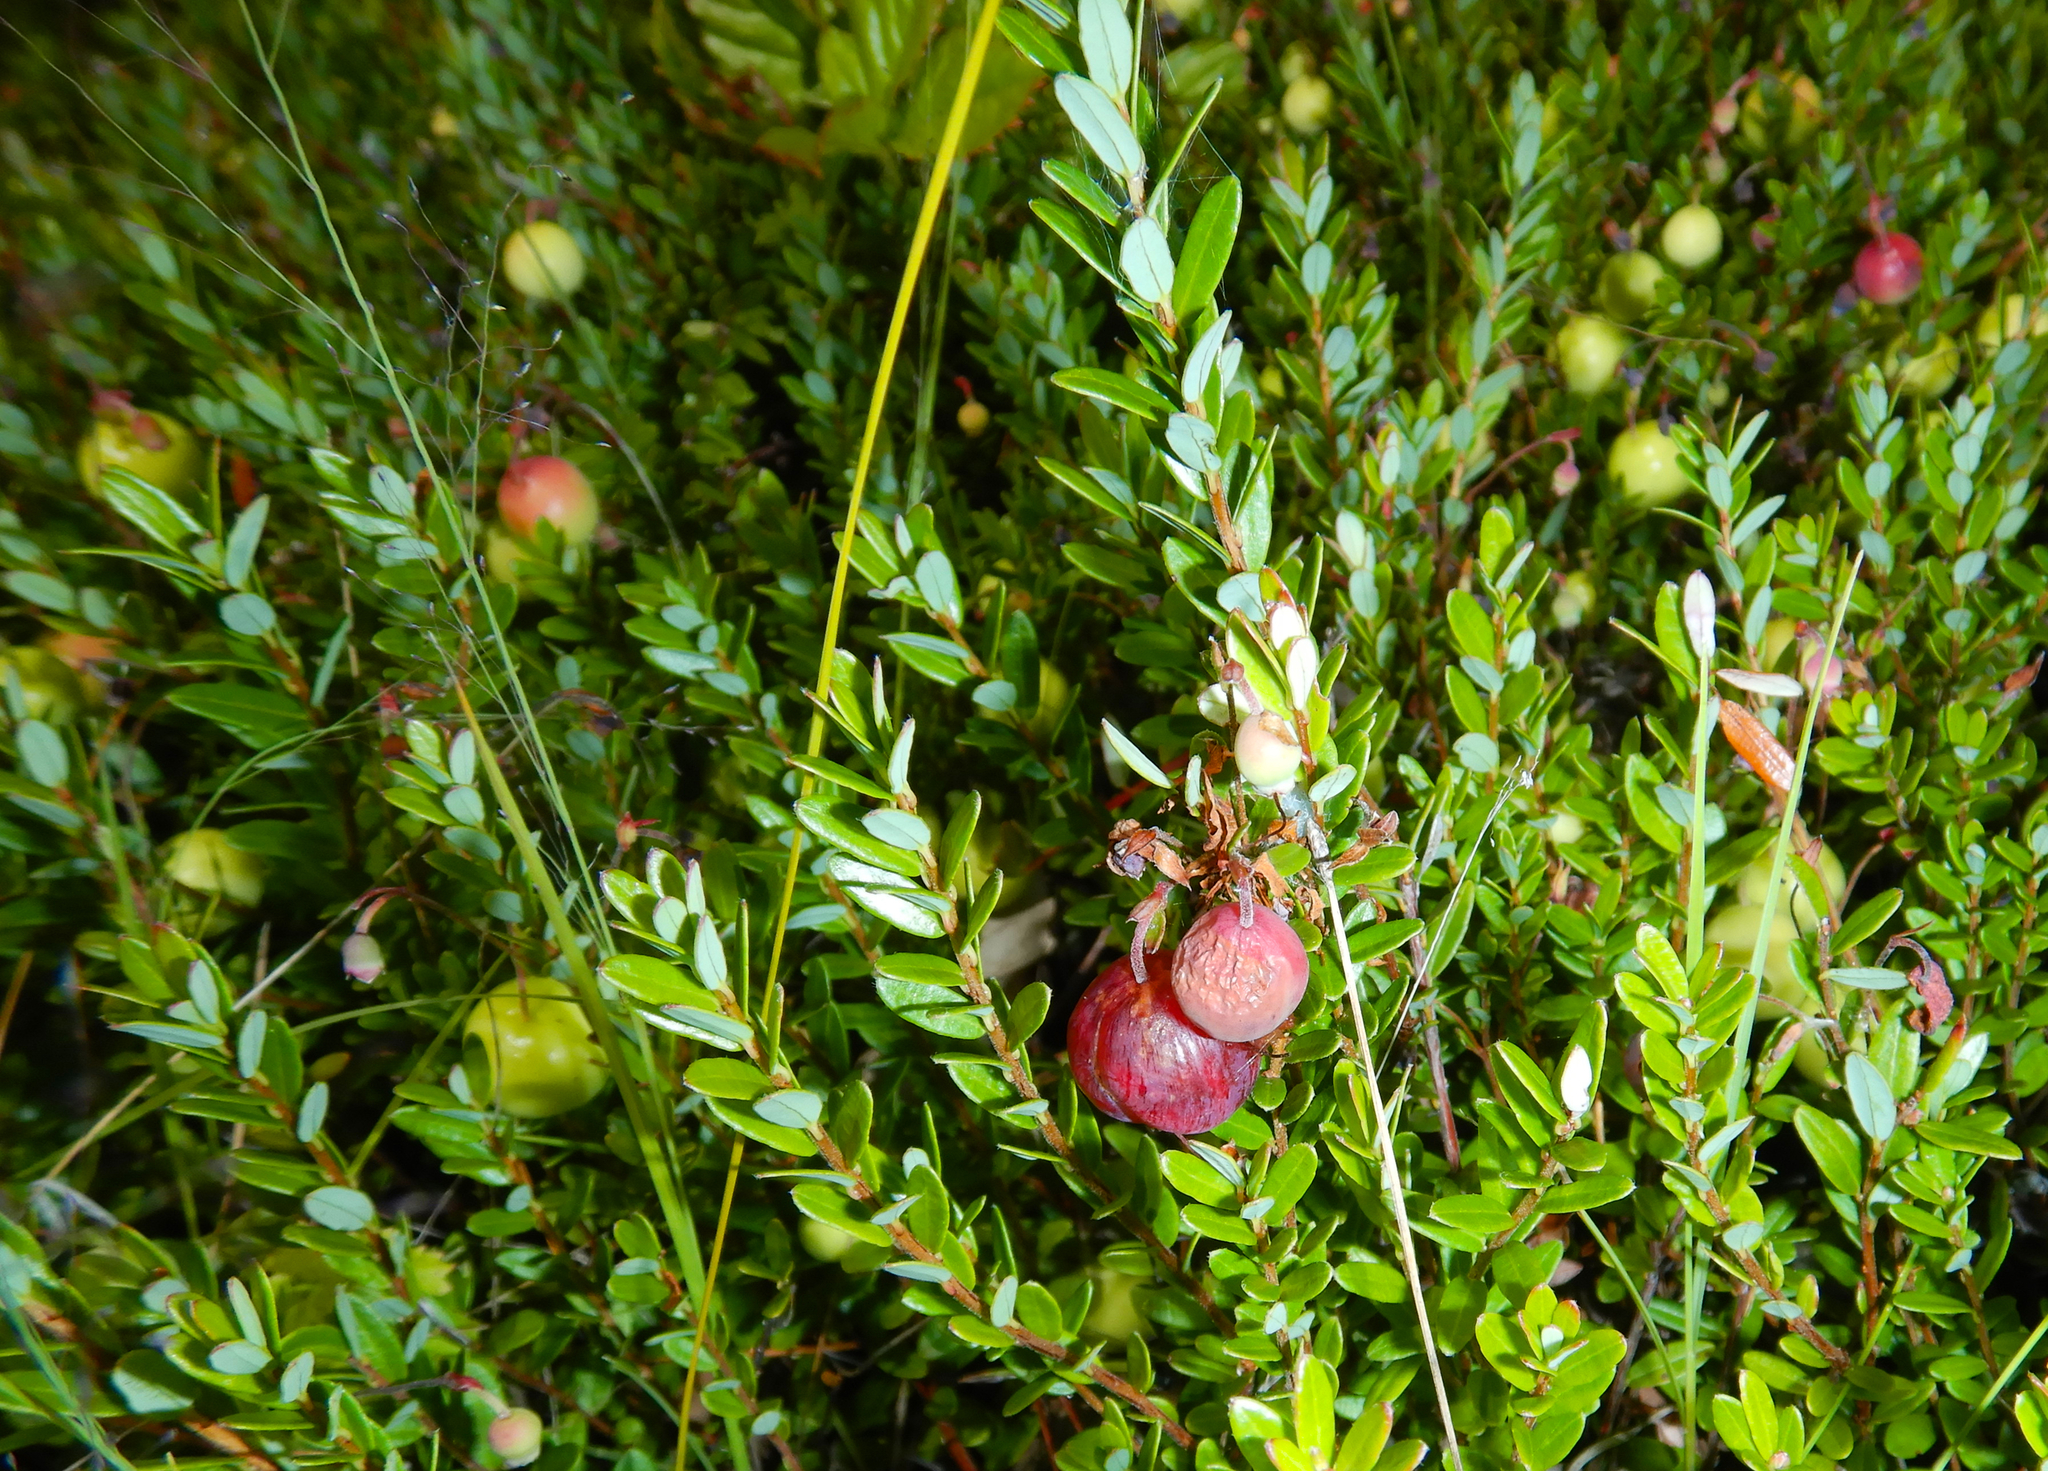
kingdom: Plantae
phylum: Tracheophyta
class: Magnoliopsida
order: Ericales
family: Ericaceae
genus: Vaccinium
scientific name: Vaccinium macrocarpon
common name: American cranberry
